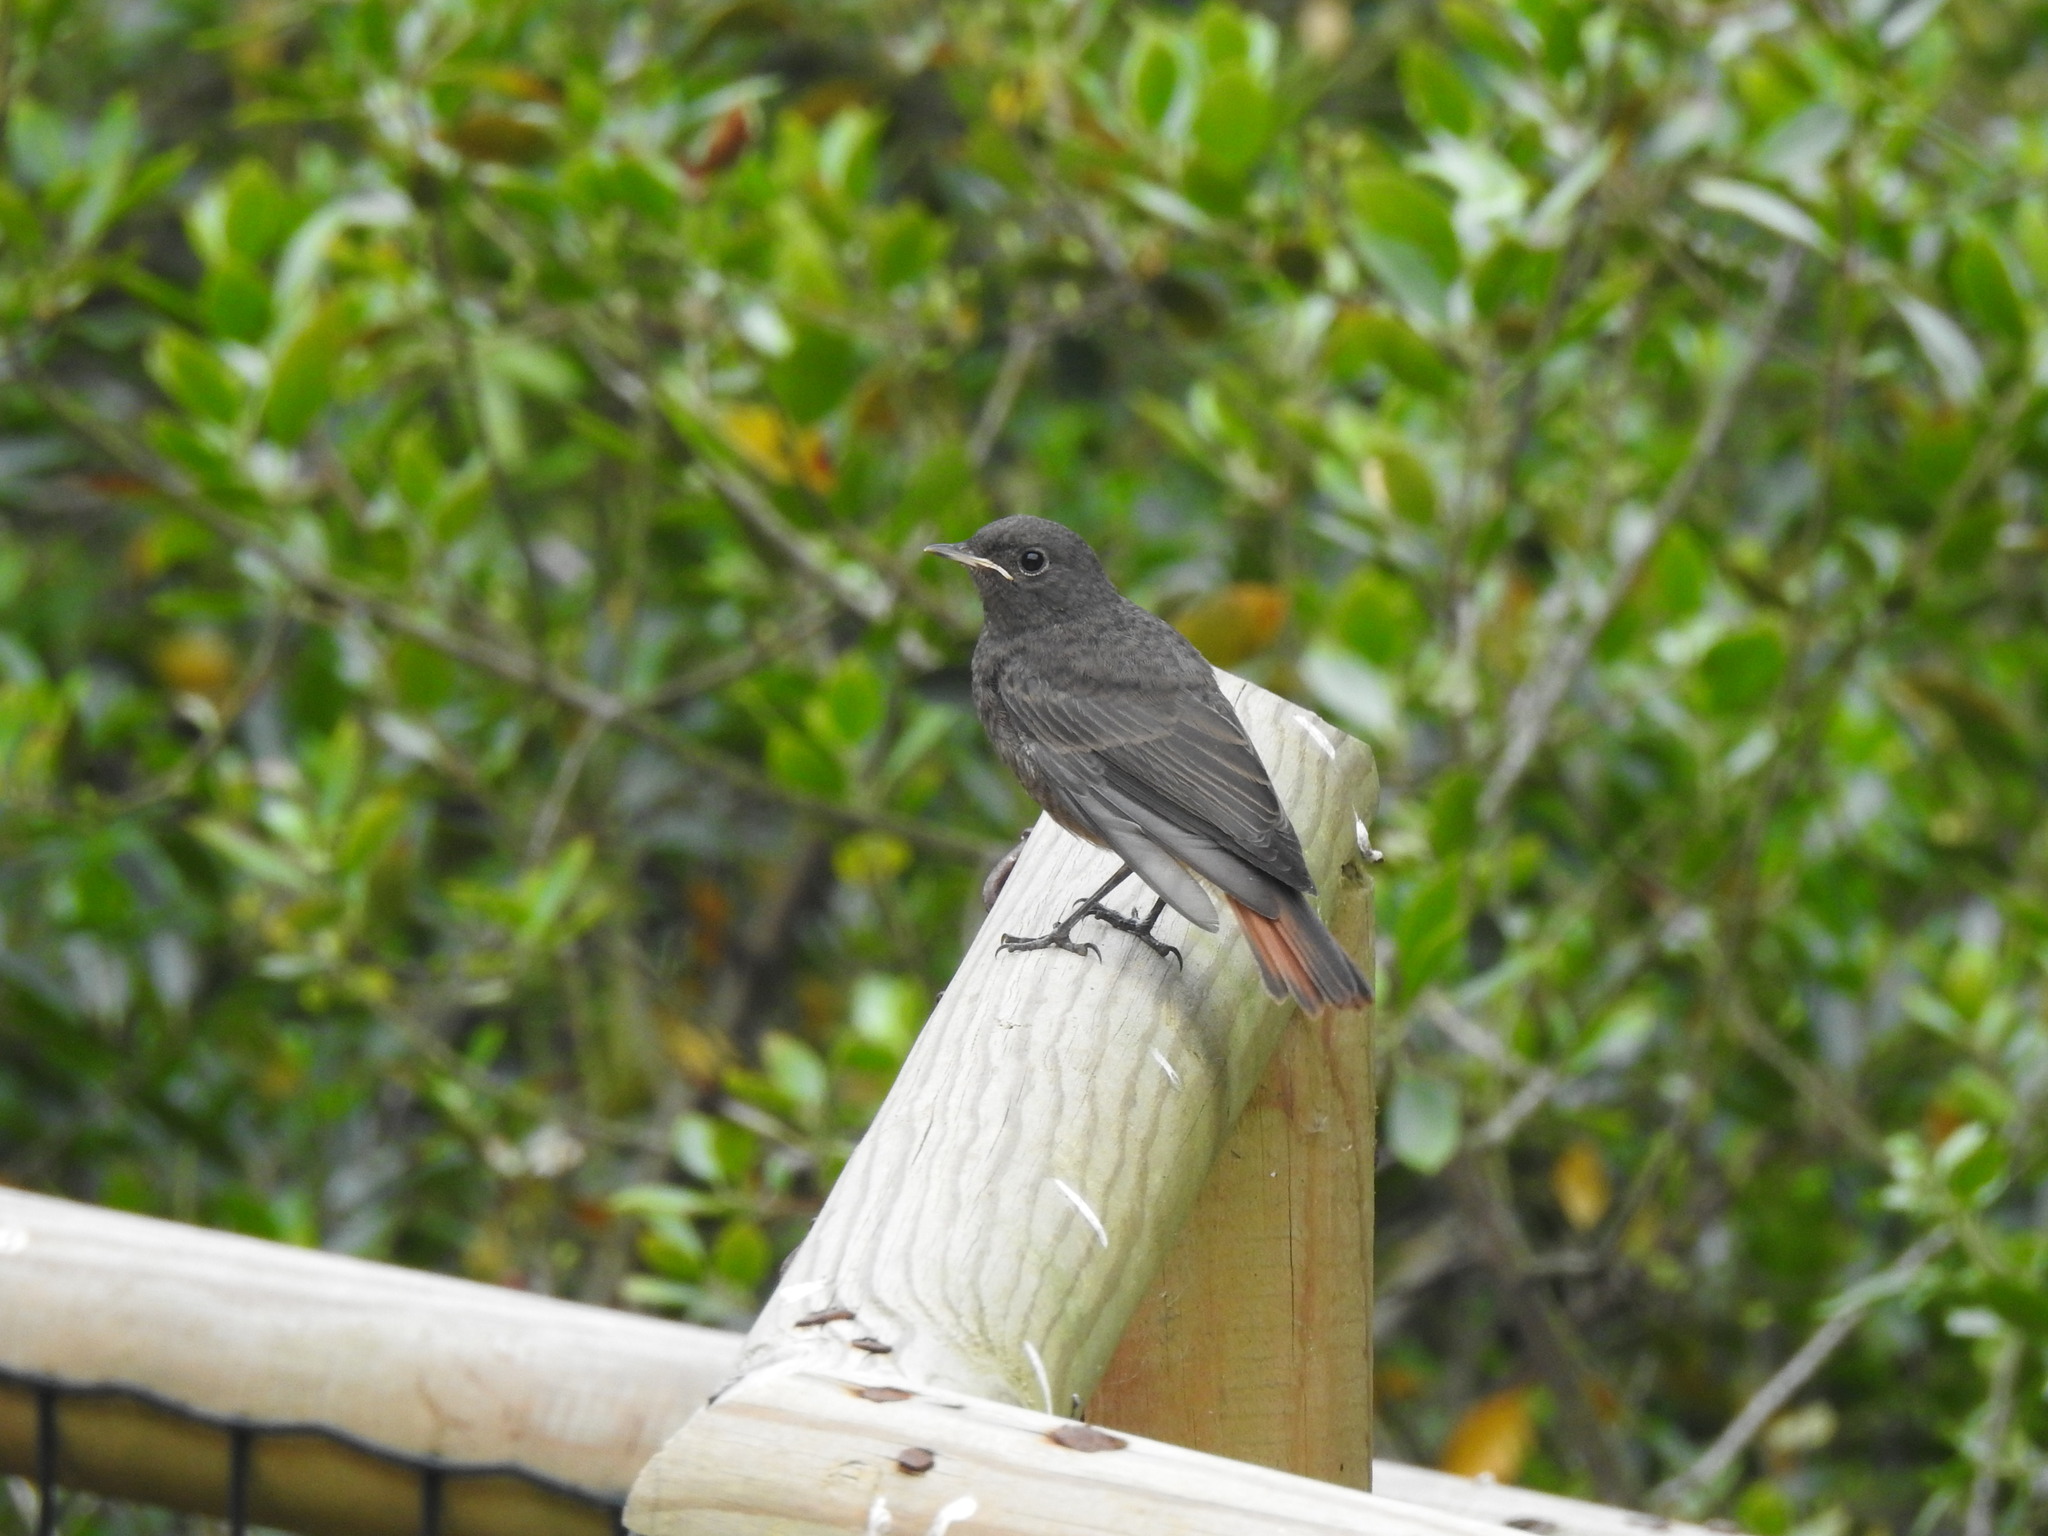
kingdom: Animalia
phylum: Chordata
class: Aves
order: Passeriformes
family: Muscicapidae
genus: Phoenicurus
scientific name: Phoenicurus ochruros
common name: Black redstart
